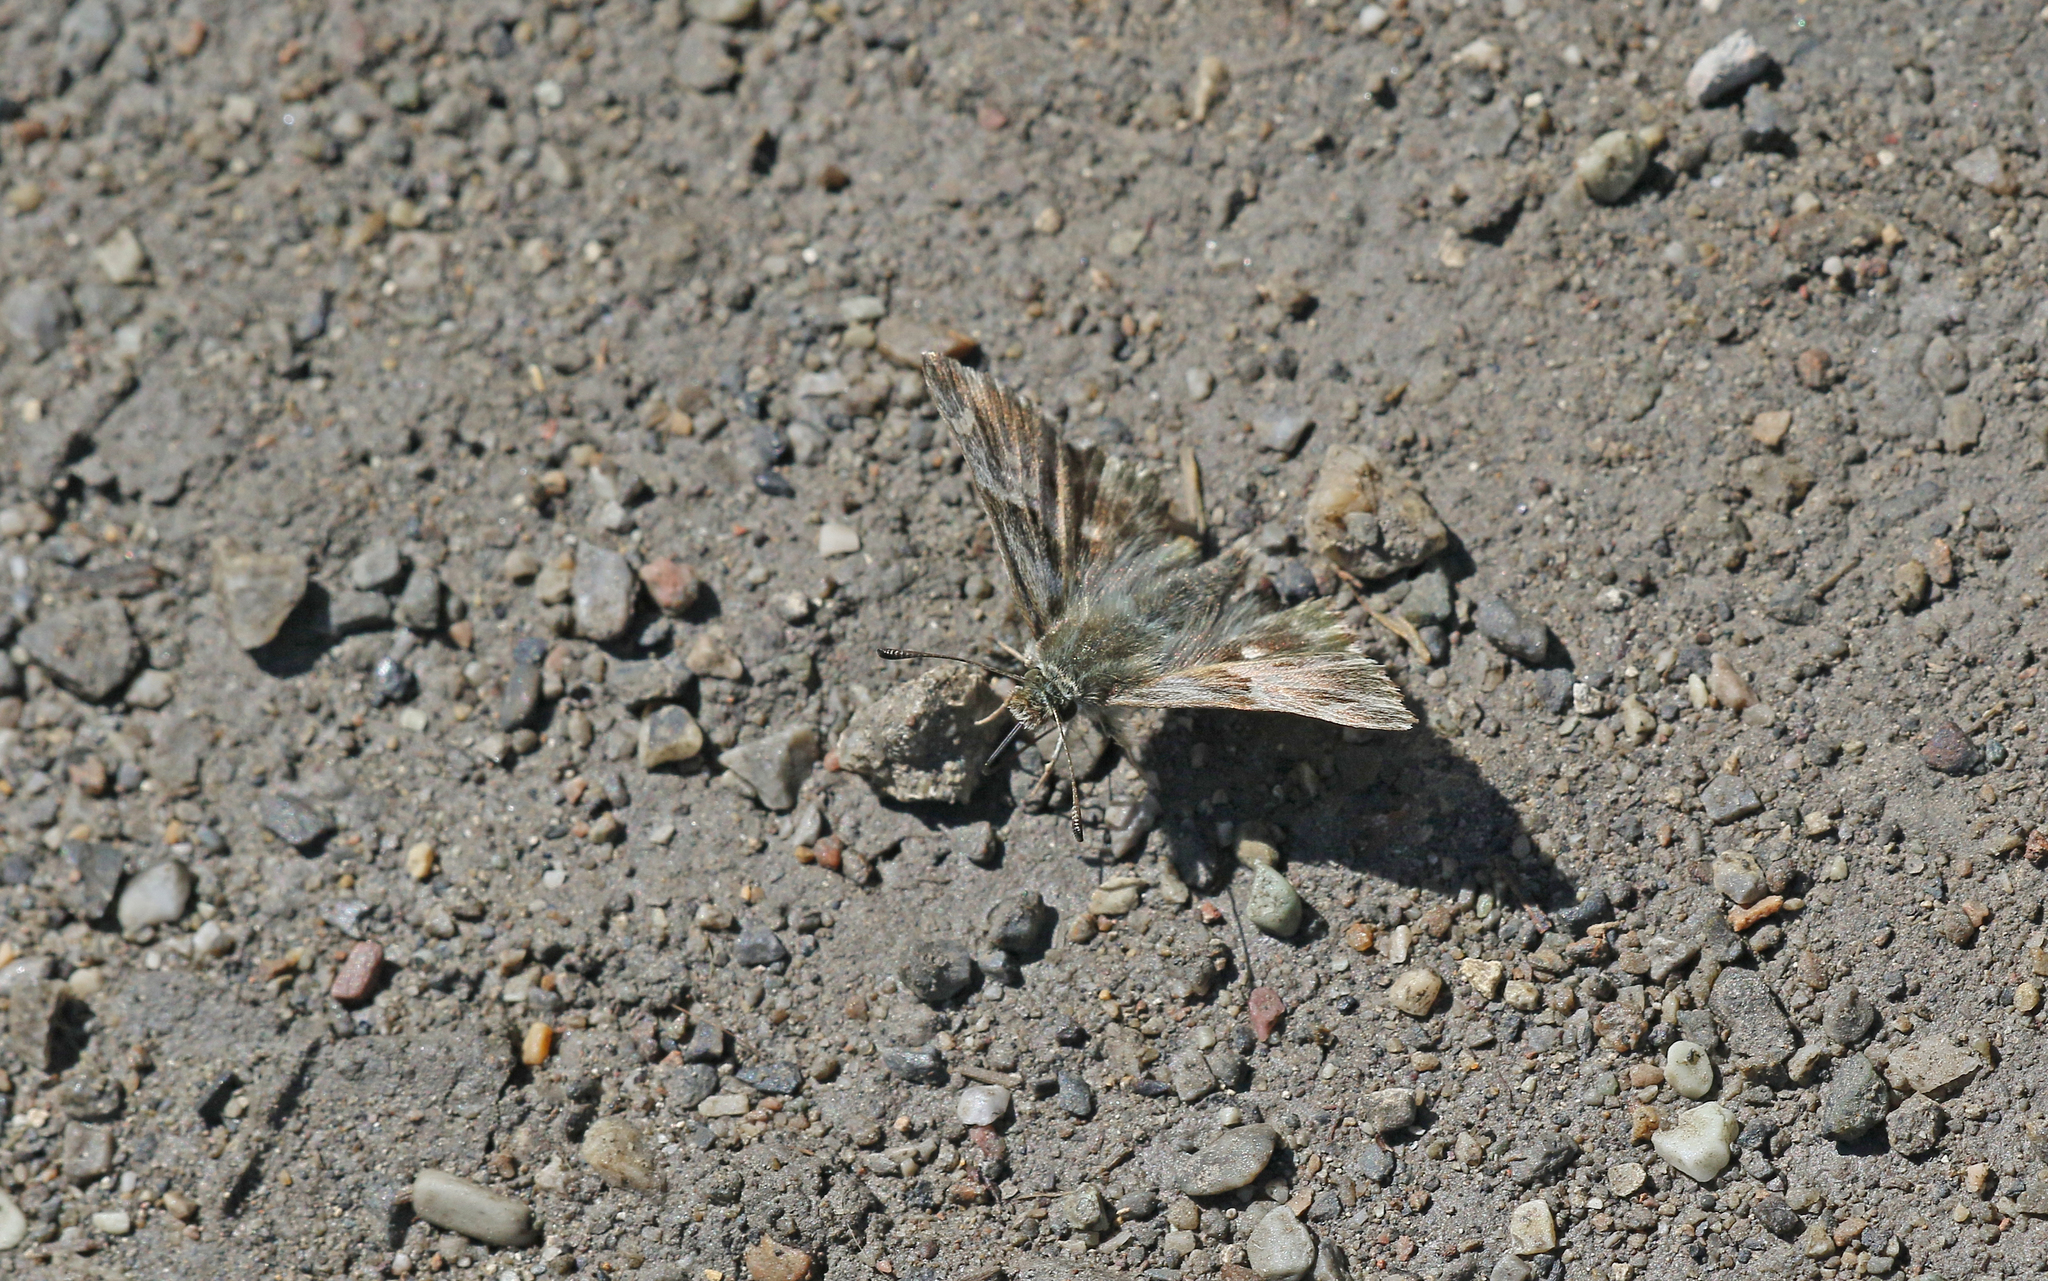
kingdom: Animalia
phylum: Arthropoda
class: Insecta
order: Lepidoptera
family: Hesperiidae
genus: Carcharodus
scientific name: Carcharodus floccifera
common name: Tufted marbled skipper
